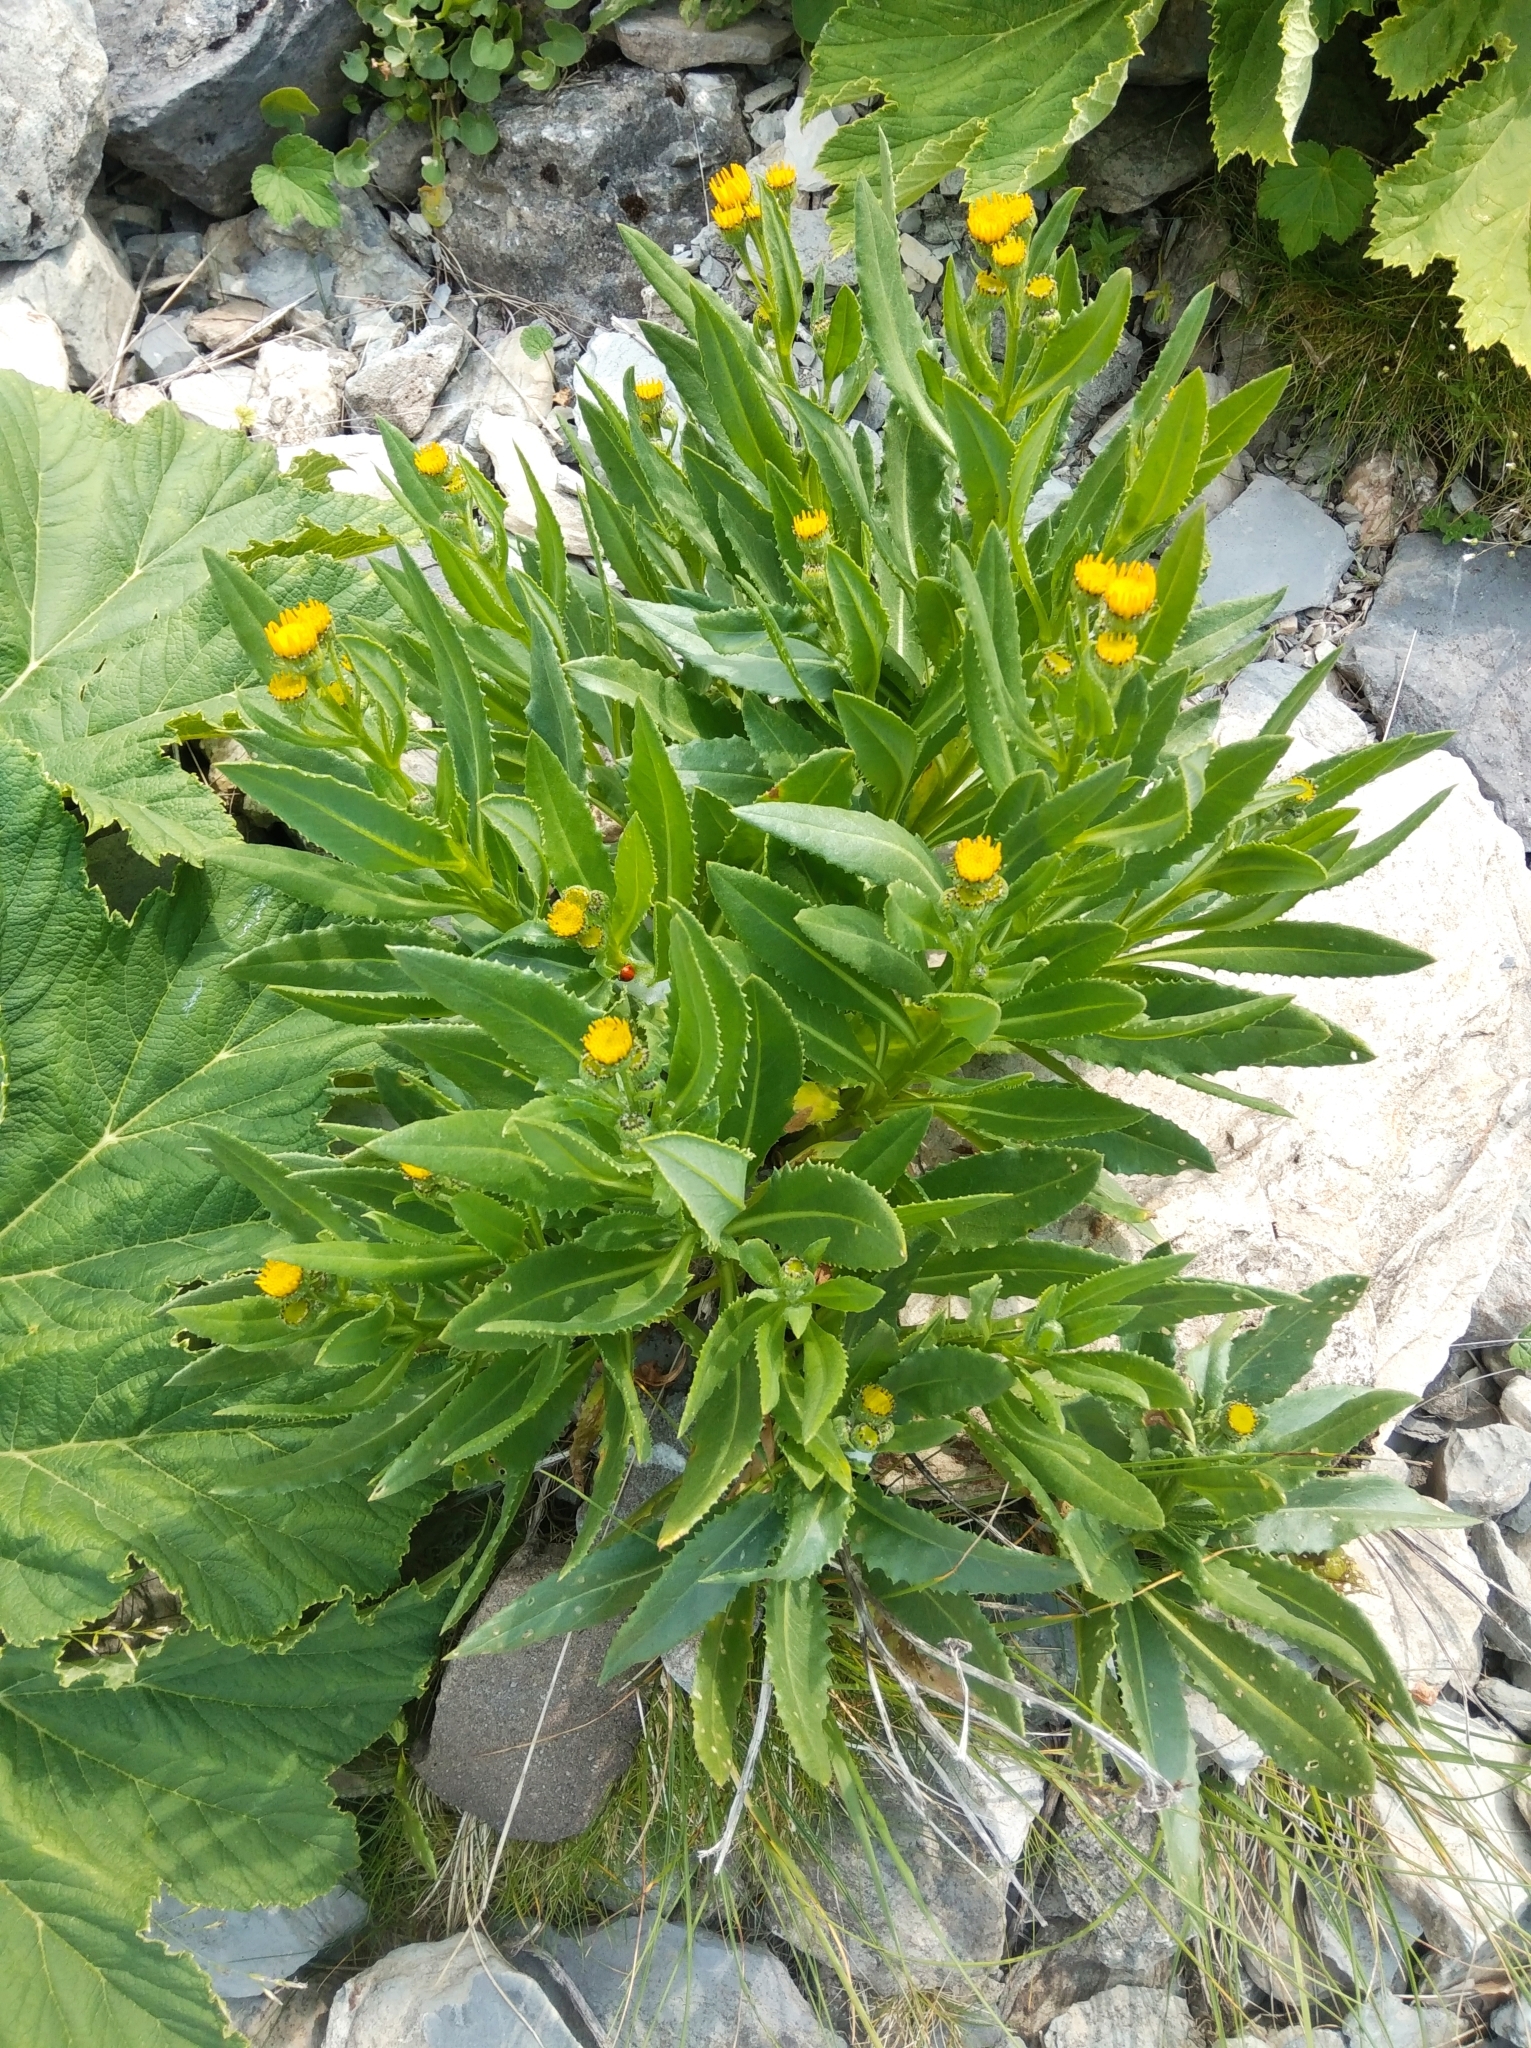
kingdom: Plantae
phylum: Tracheophyta
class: Magnoliopsida
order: Asterales
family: Asteraceae
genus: Senecio
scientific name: Senecio pyrenaicus
